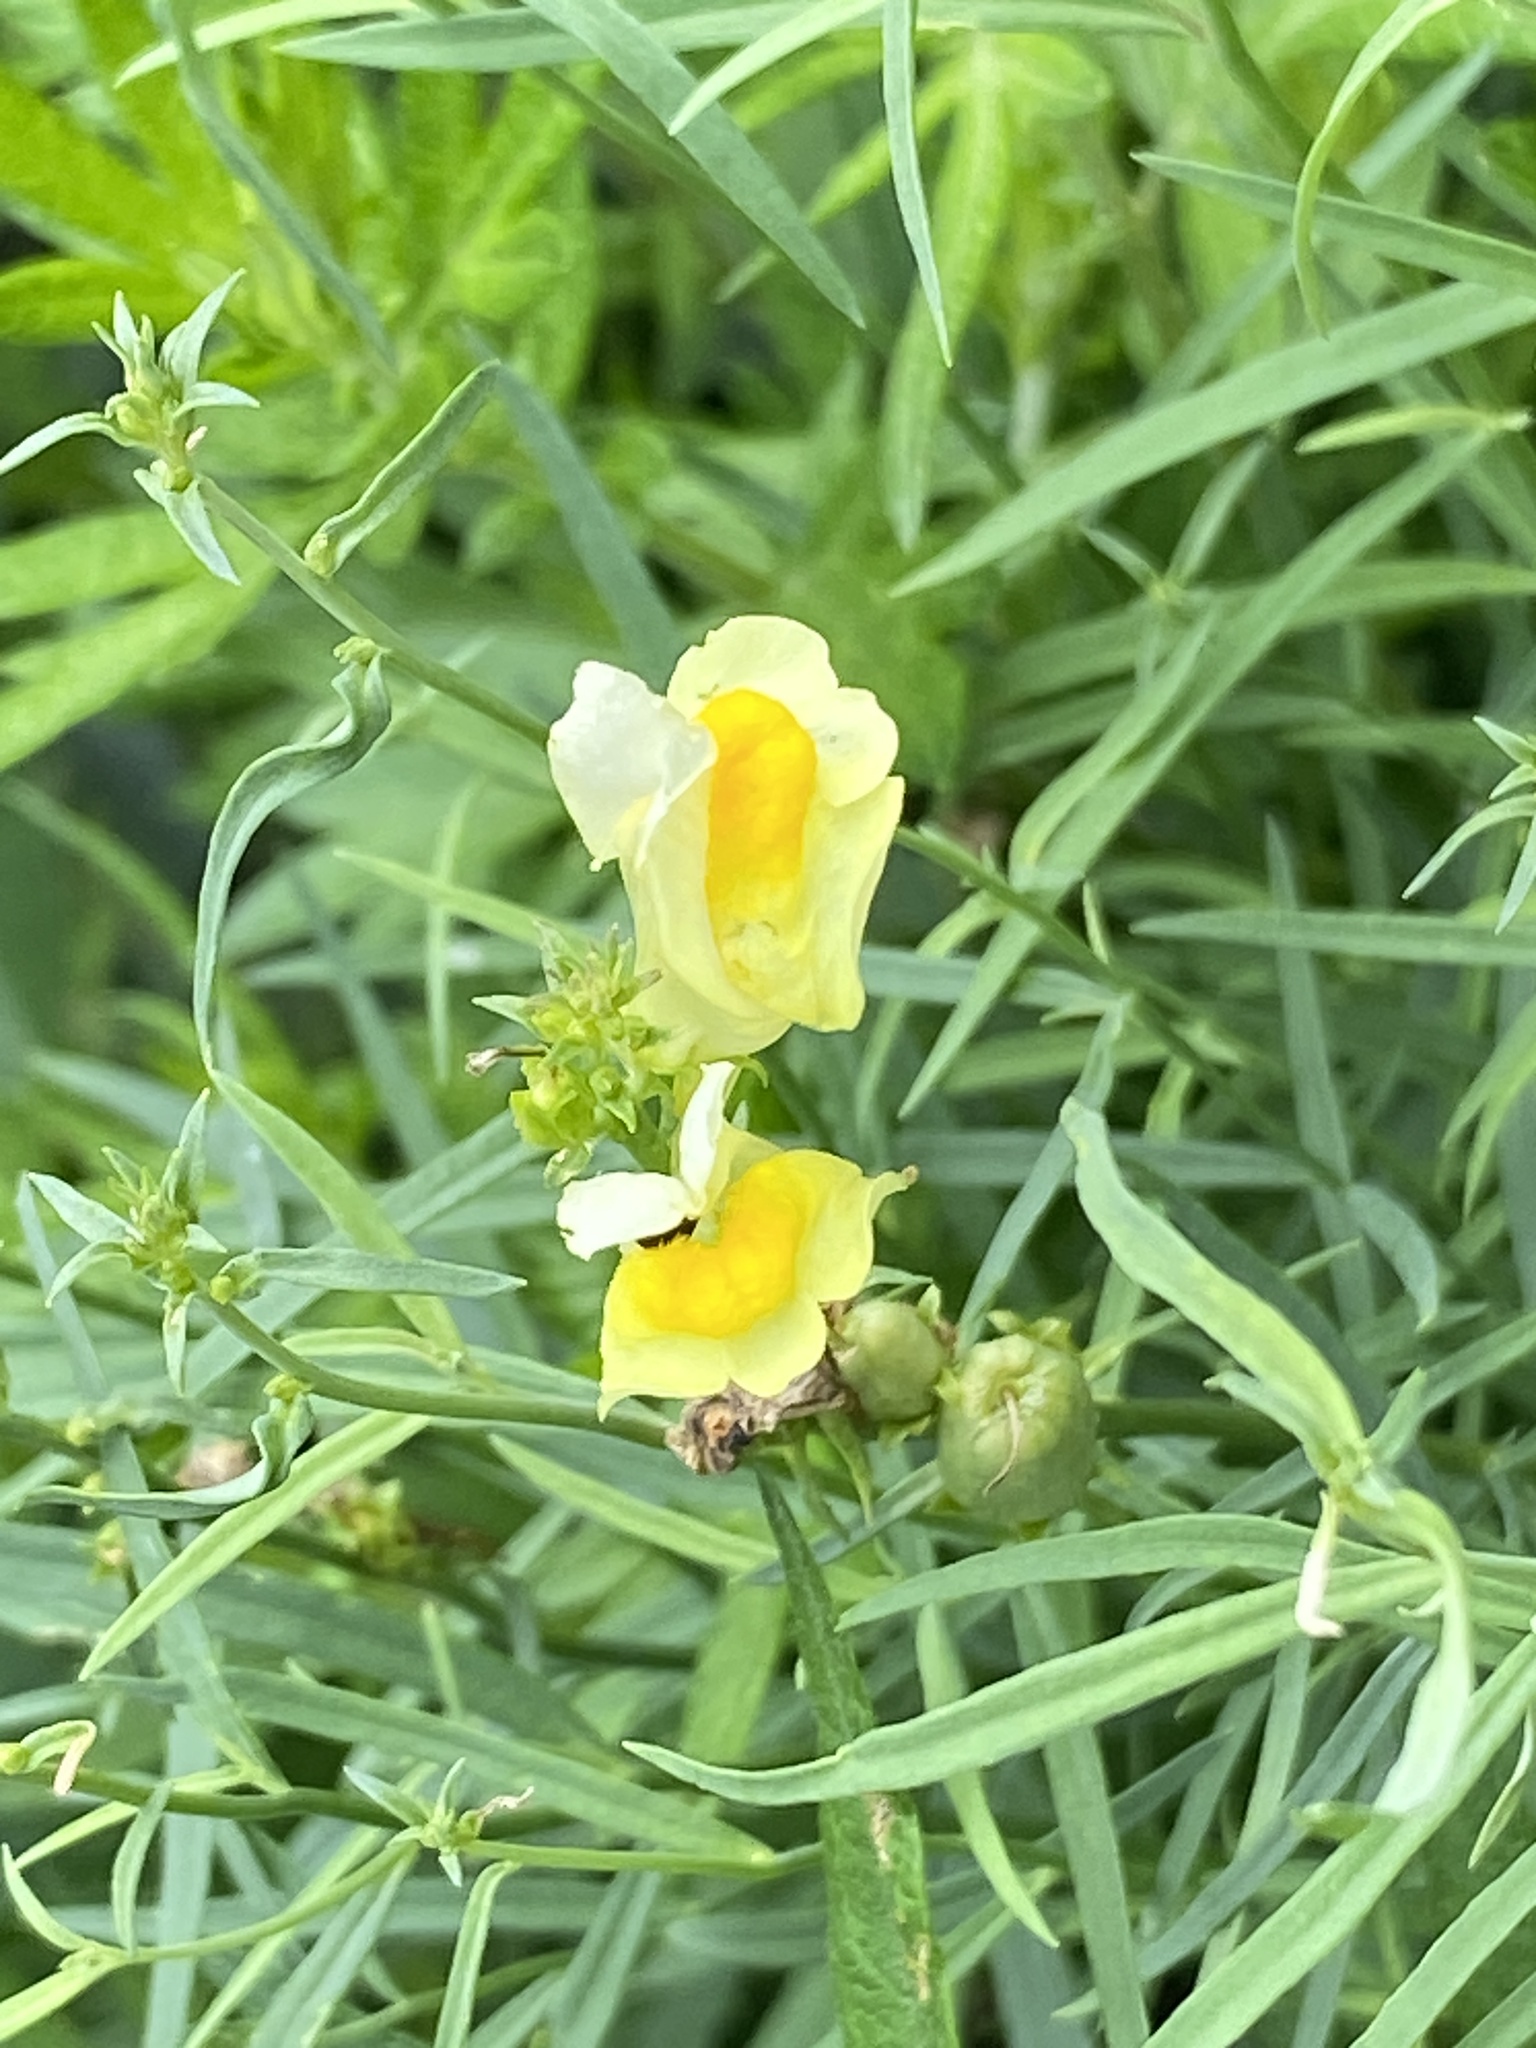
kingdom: Plantae
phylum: Tracheophyta
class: Magnoliopsida
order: Lamiales
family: Plantaginaceae
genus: Linaria
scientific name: Linaria vulgaris
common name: Butter and eggs
